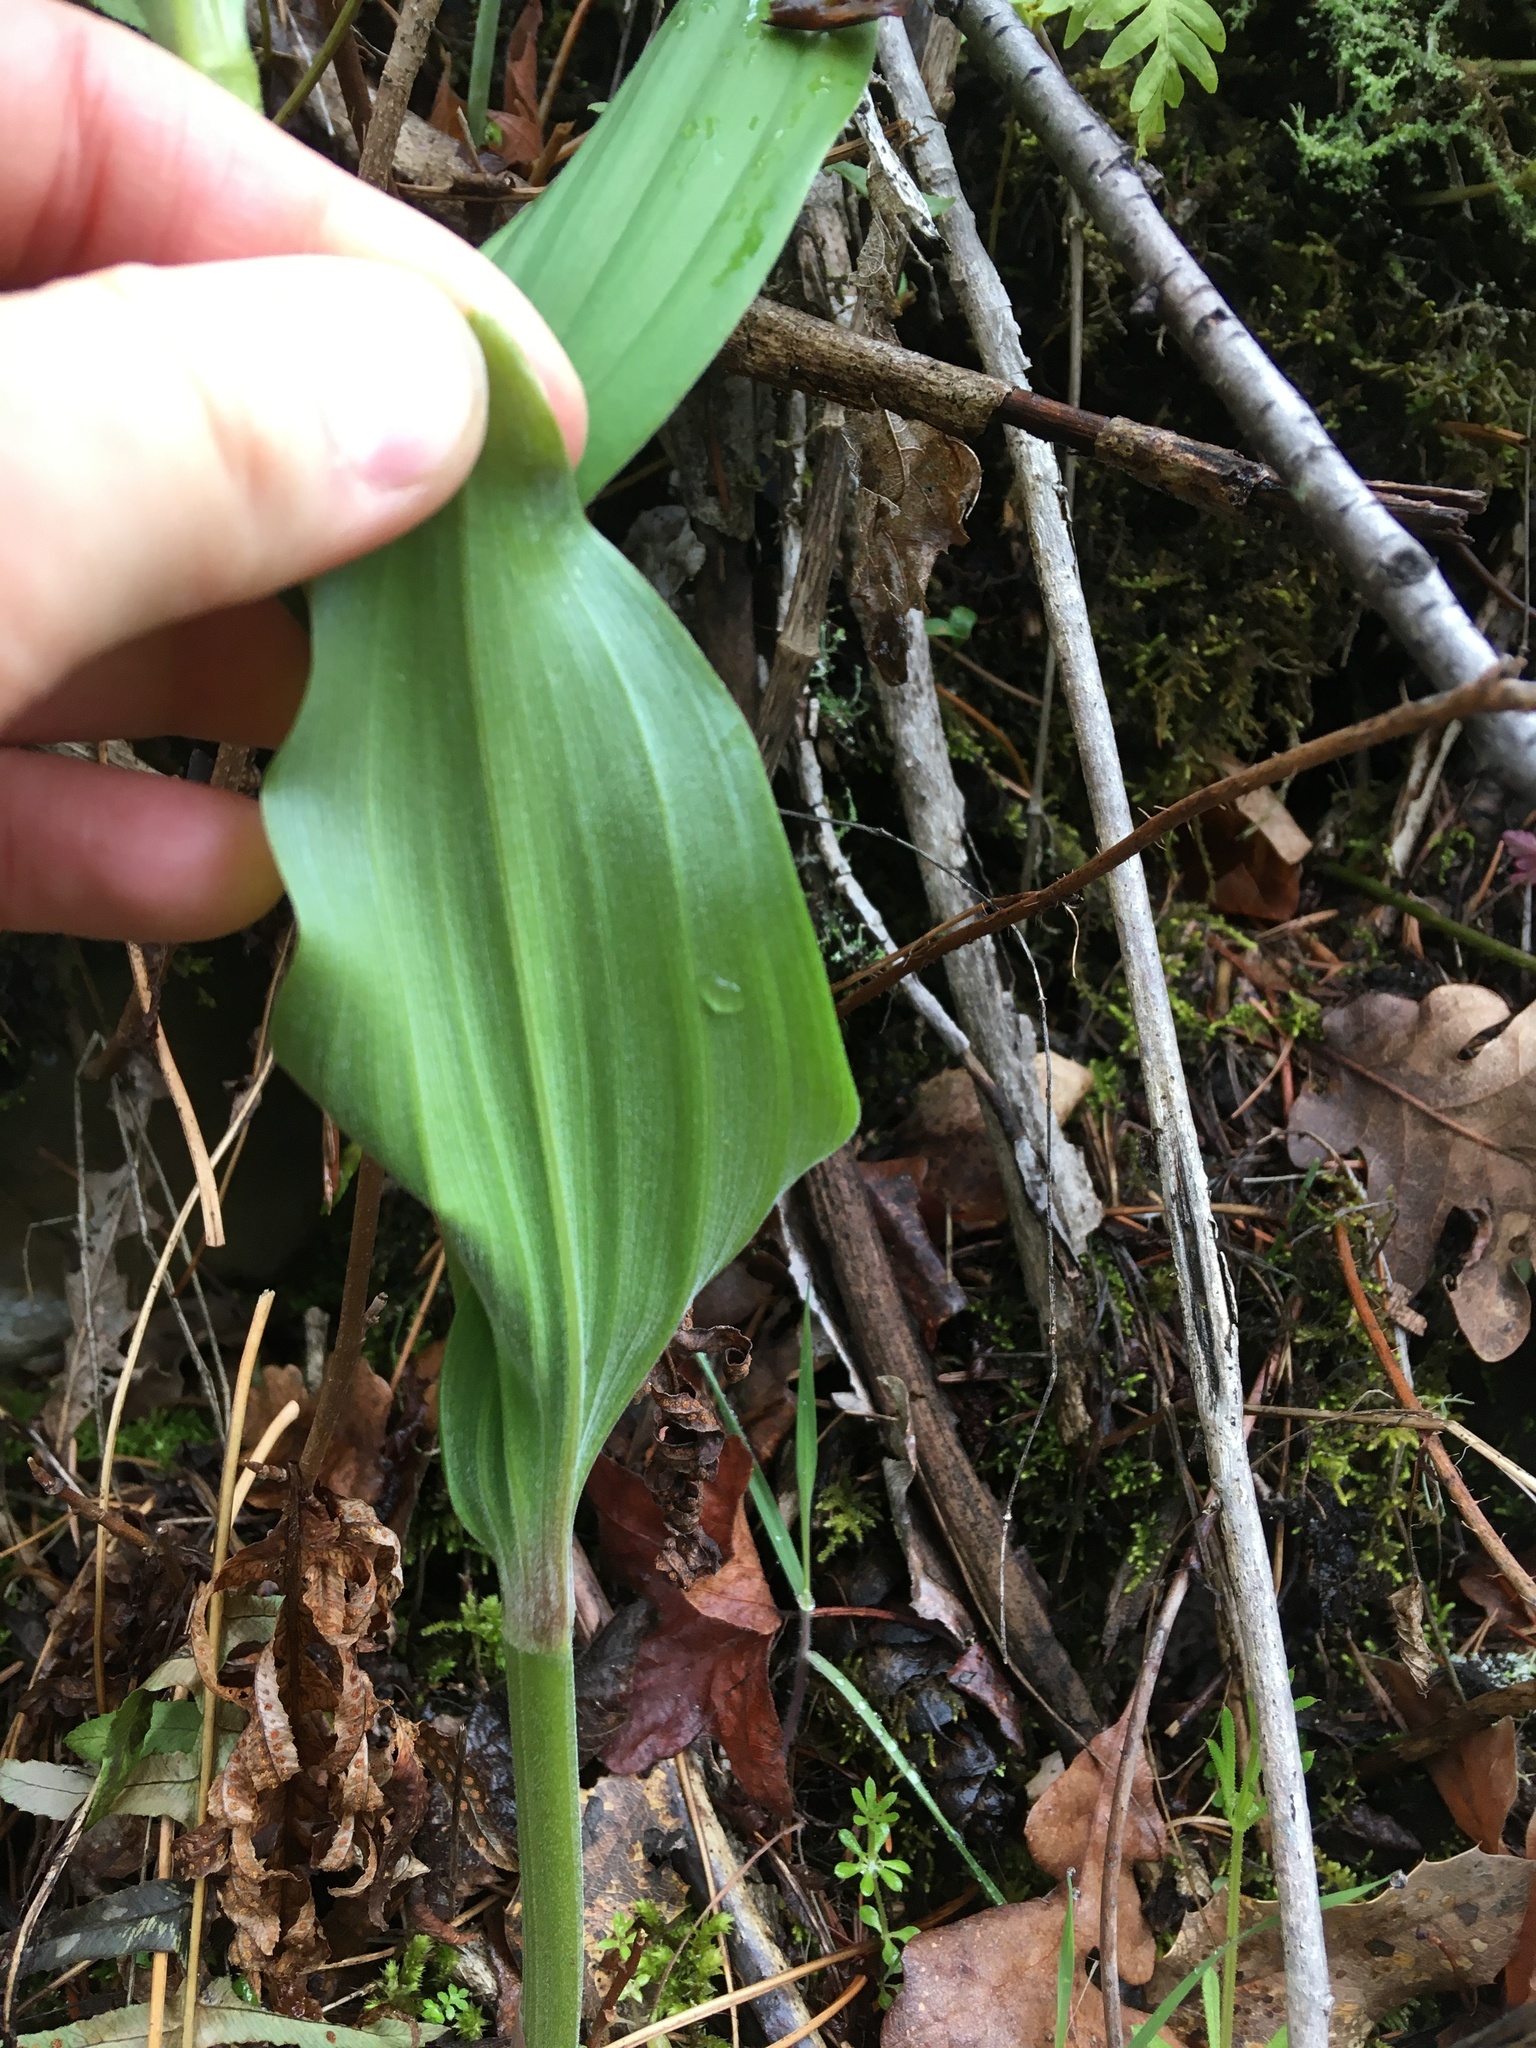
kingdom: Plantae
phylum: Tracheophyta
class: Liliopsida
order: Asparagales
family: Asparagaceae
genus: Maianthemum
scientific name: Maianthemum racemosum
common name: False spikenard
